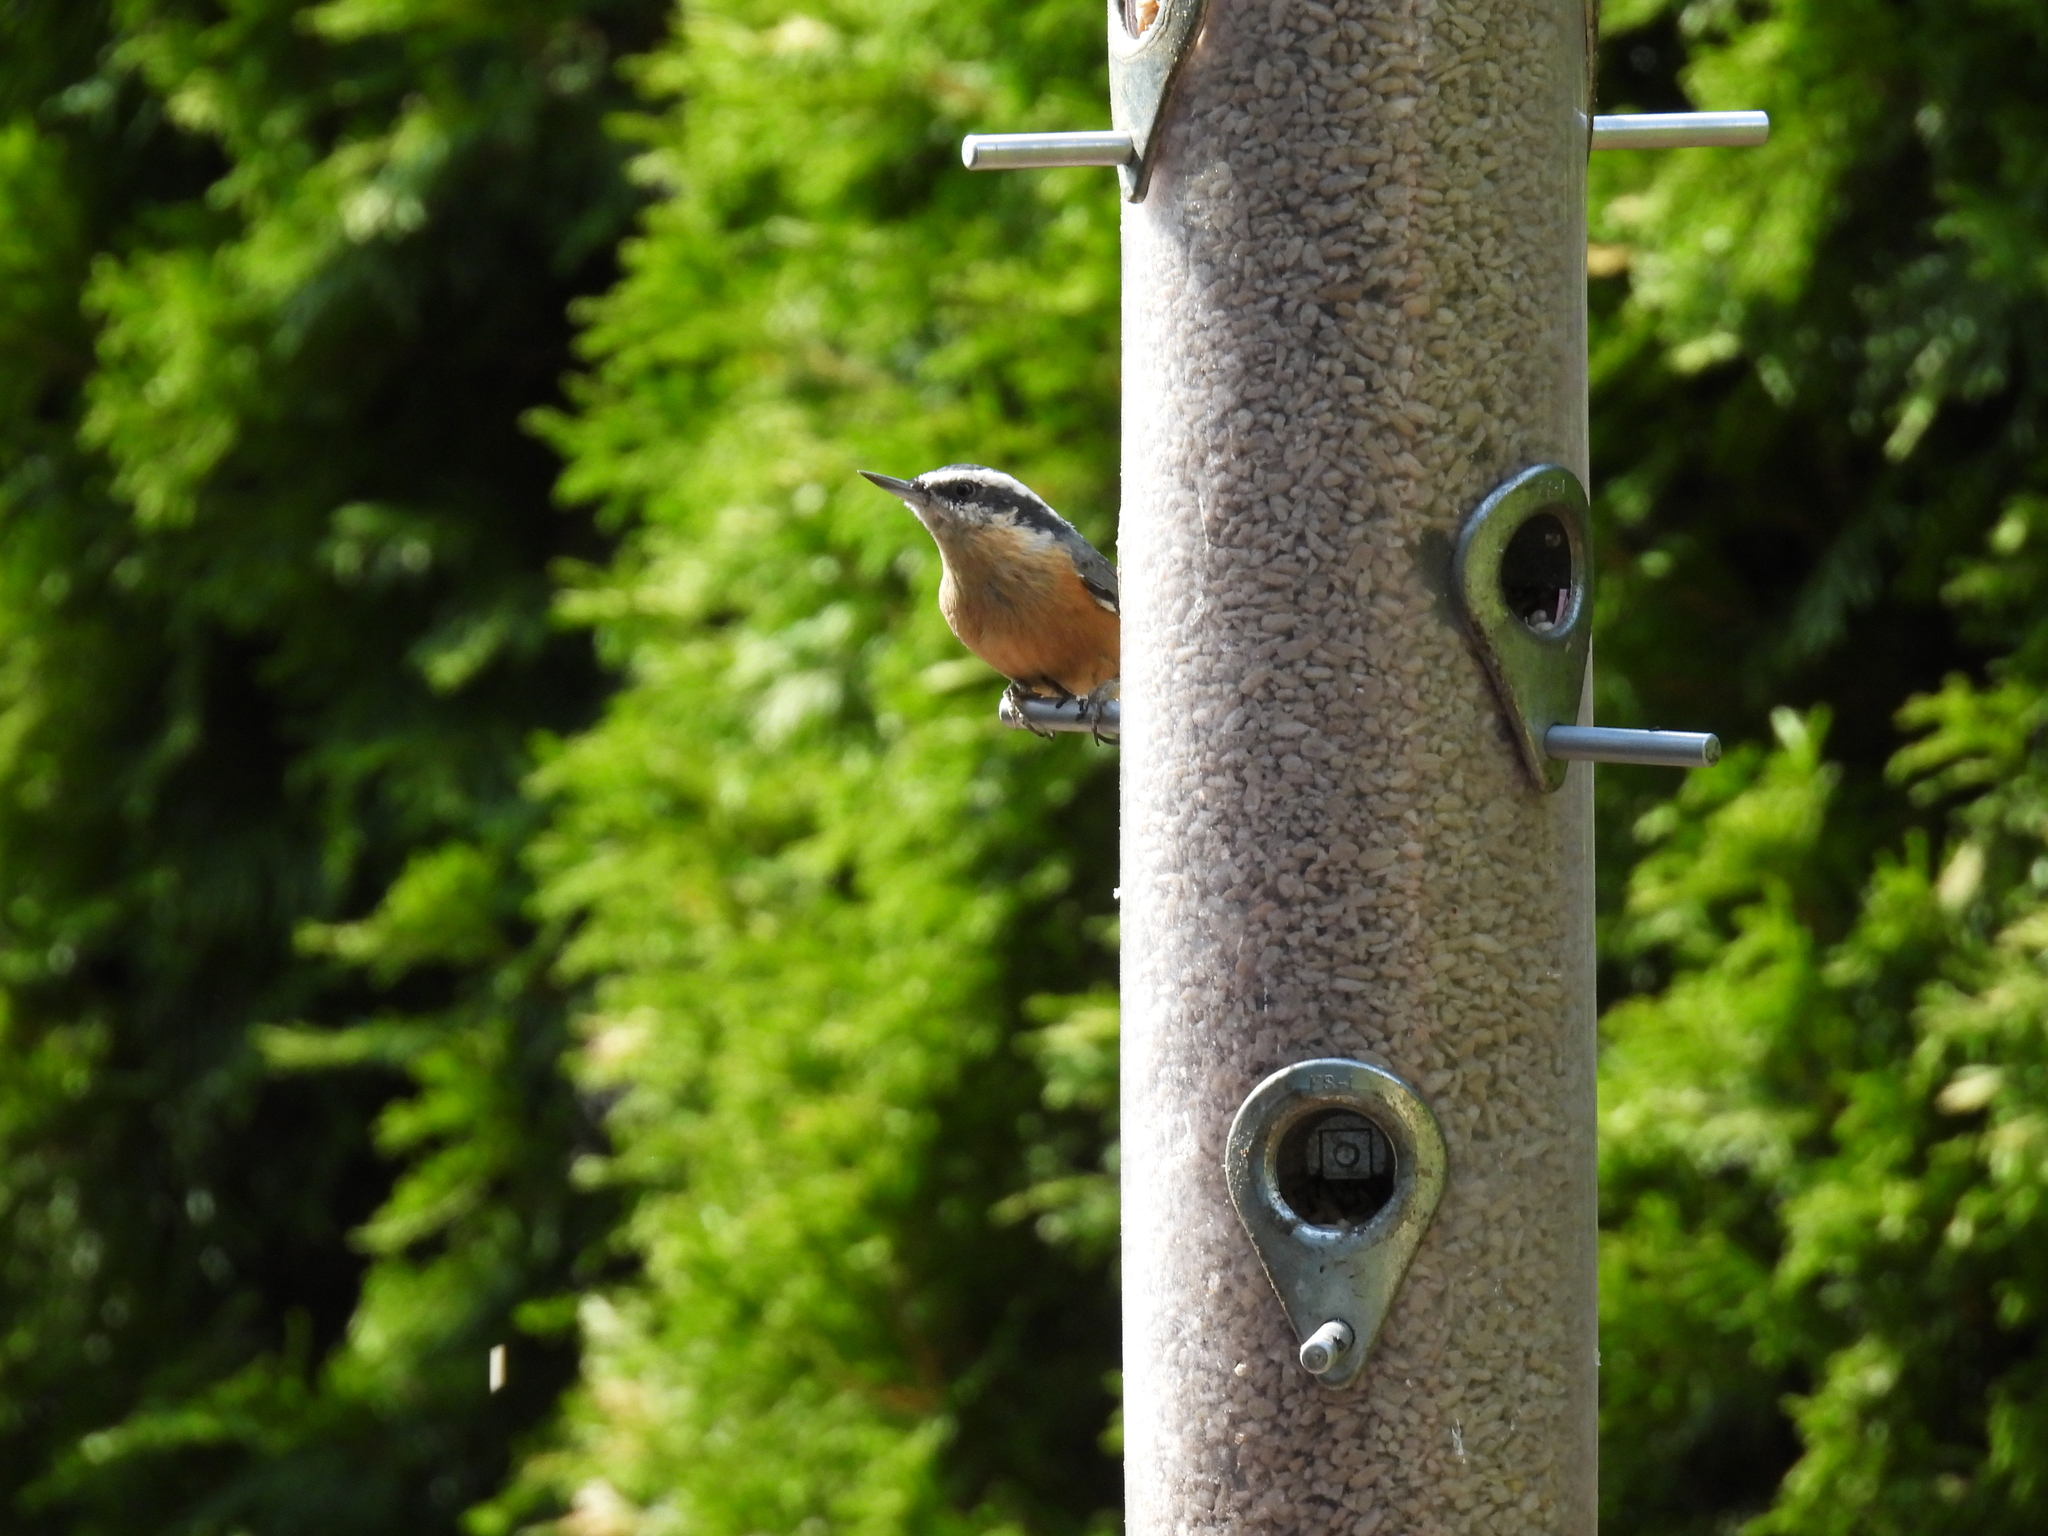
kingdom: Animalia
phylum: Chordata
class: Aves
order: Passeriformes
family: Sittidae
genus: Sitta
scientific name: Sitta canadensis
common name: Red-breasted nuthatch
